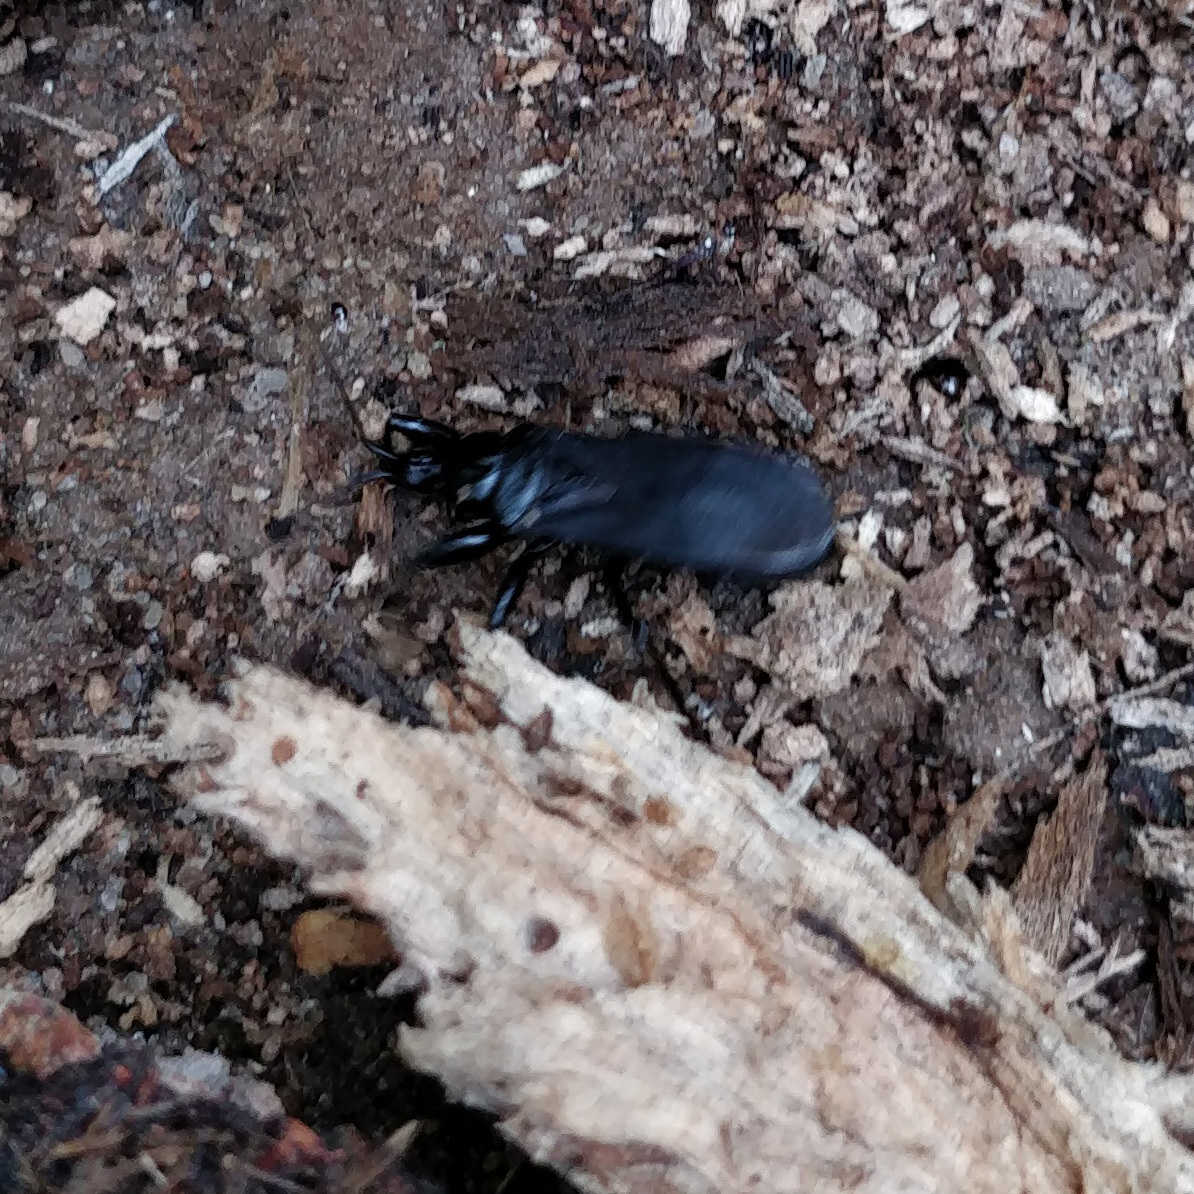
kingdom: Animalia
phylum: Arthropoda
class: Insecta
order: Hemiptera
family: Reduviidae
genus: Melanolestes
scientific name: Melanolestes picipes
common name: Assassin bug
